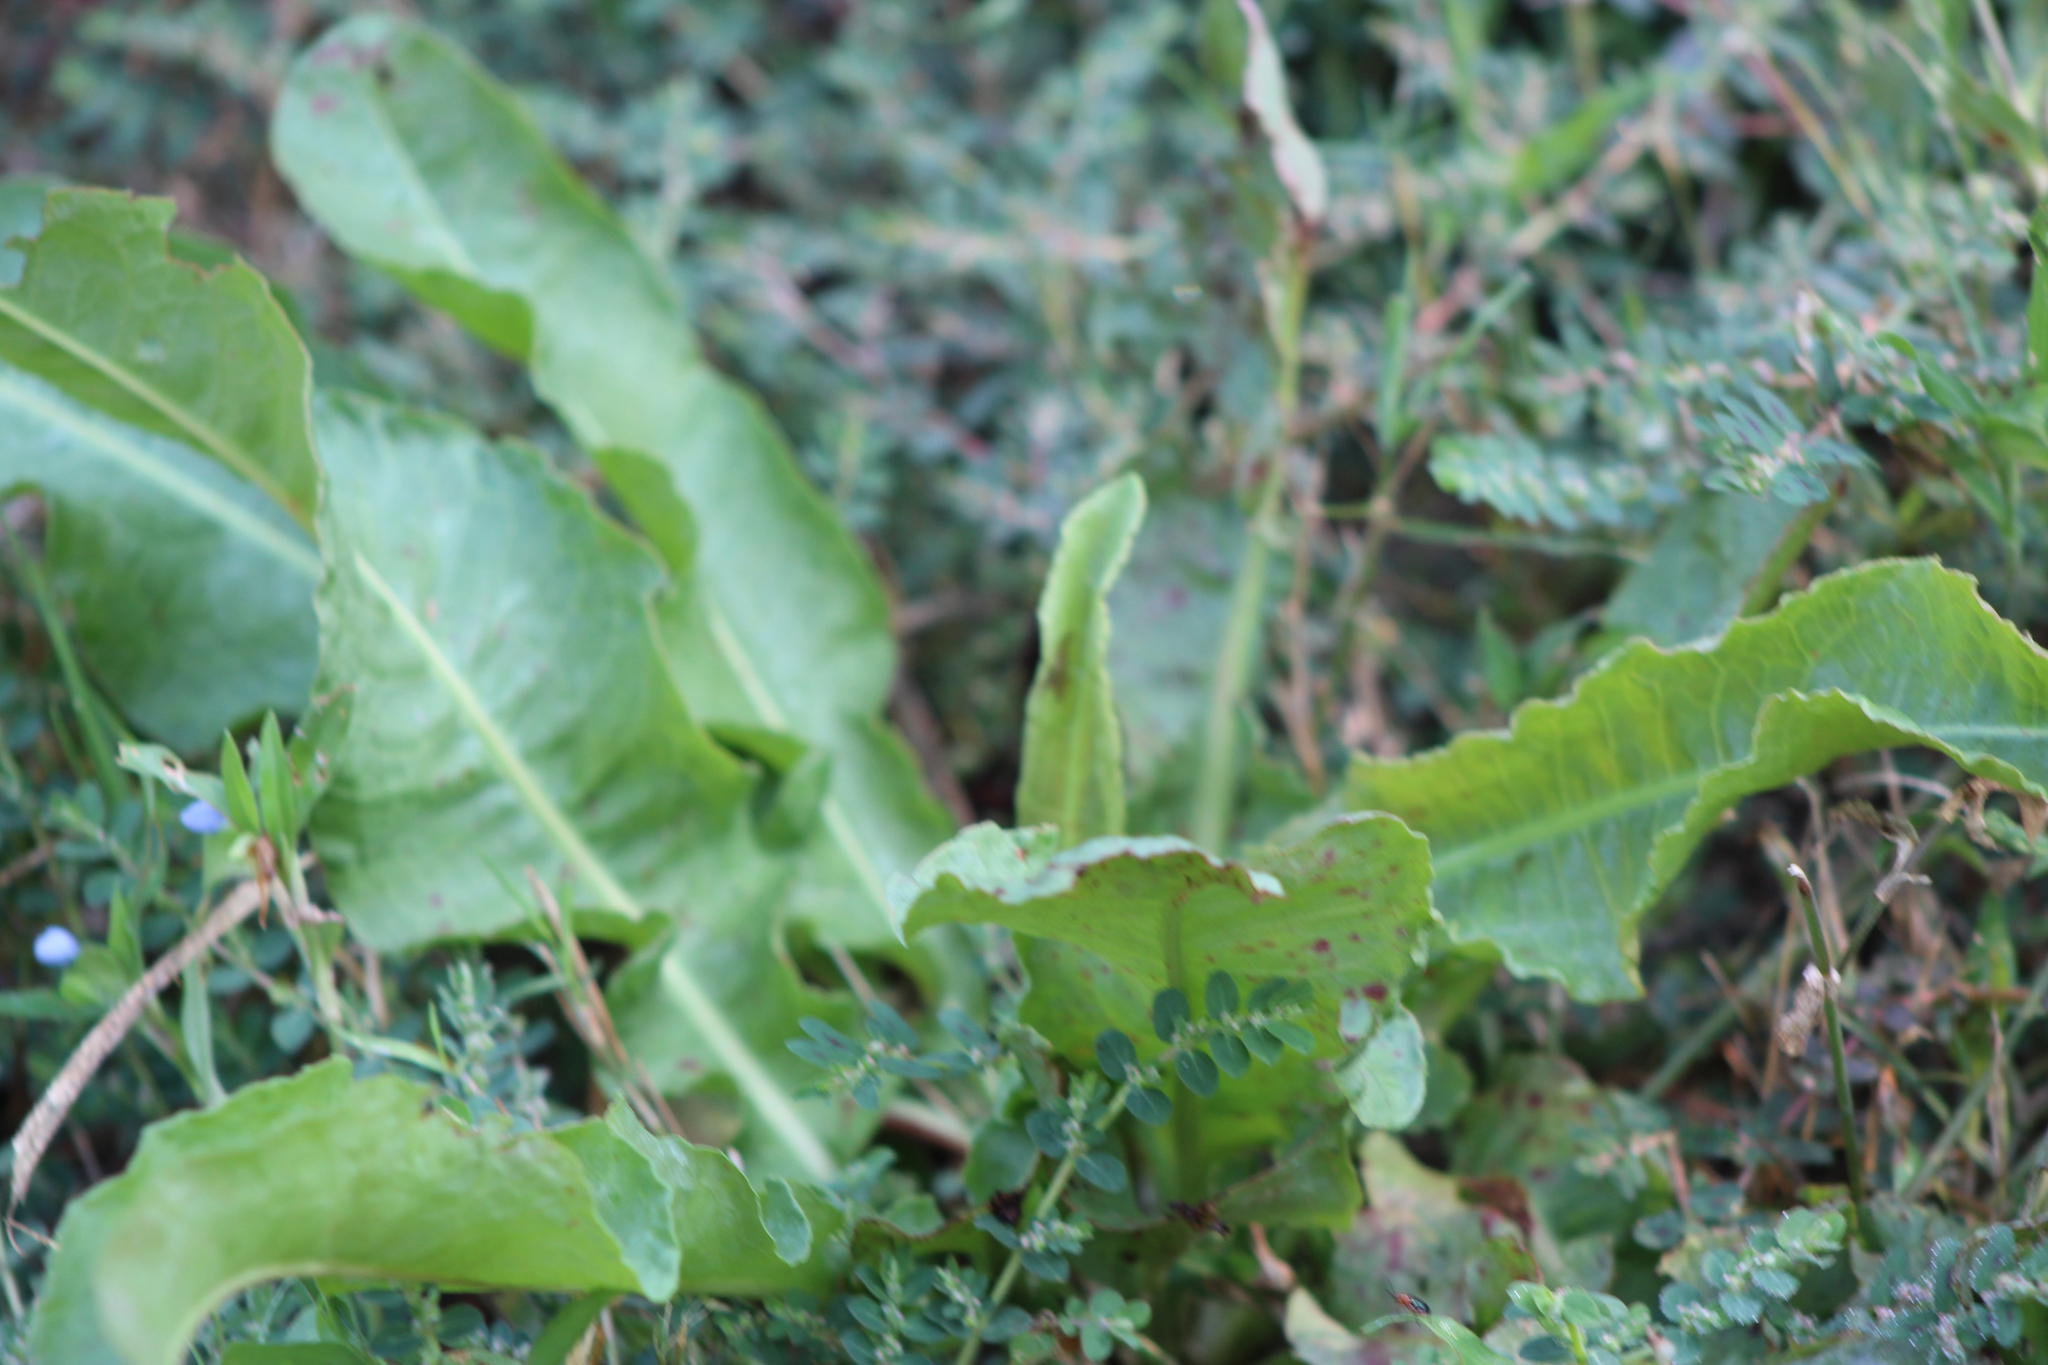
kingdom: Plantae
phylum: Tracheophyta
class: Magnoliopsida
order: Caryophyllales
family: Polygonaceae
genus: Rumex
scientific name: Rumex crispus
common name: Curled dock
